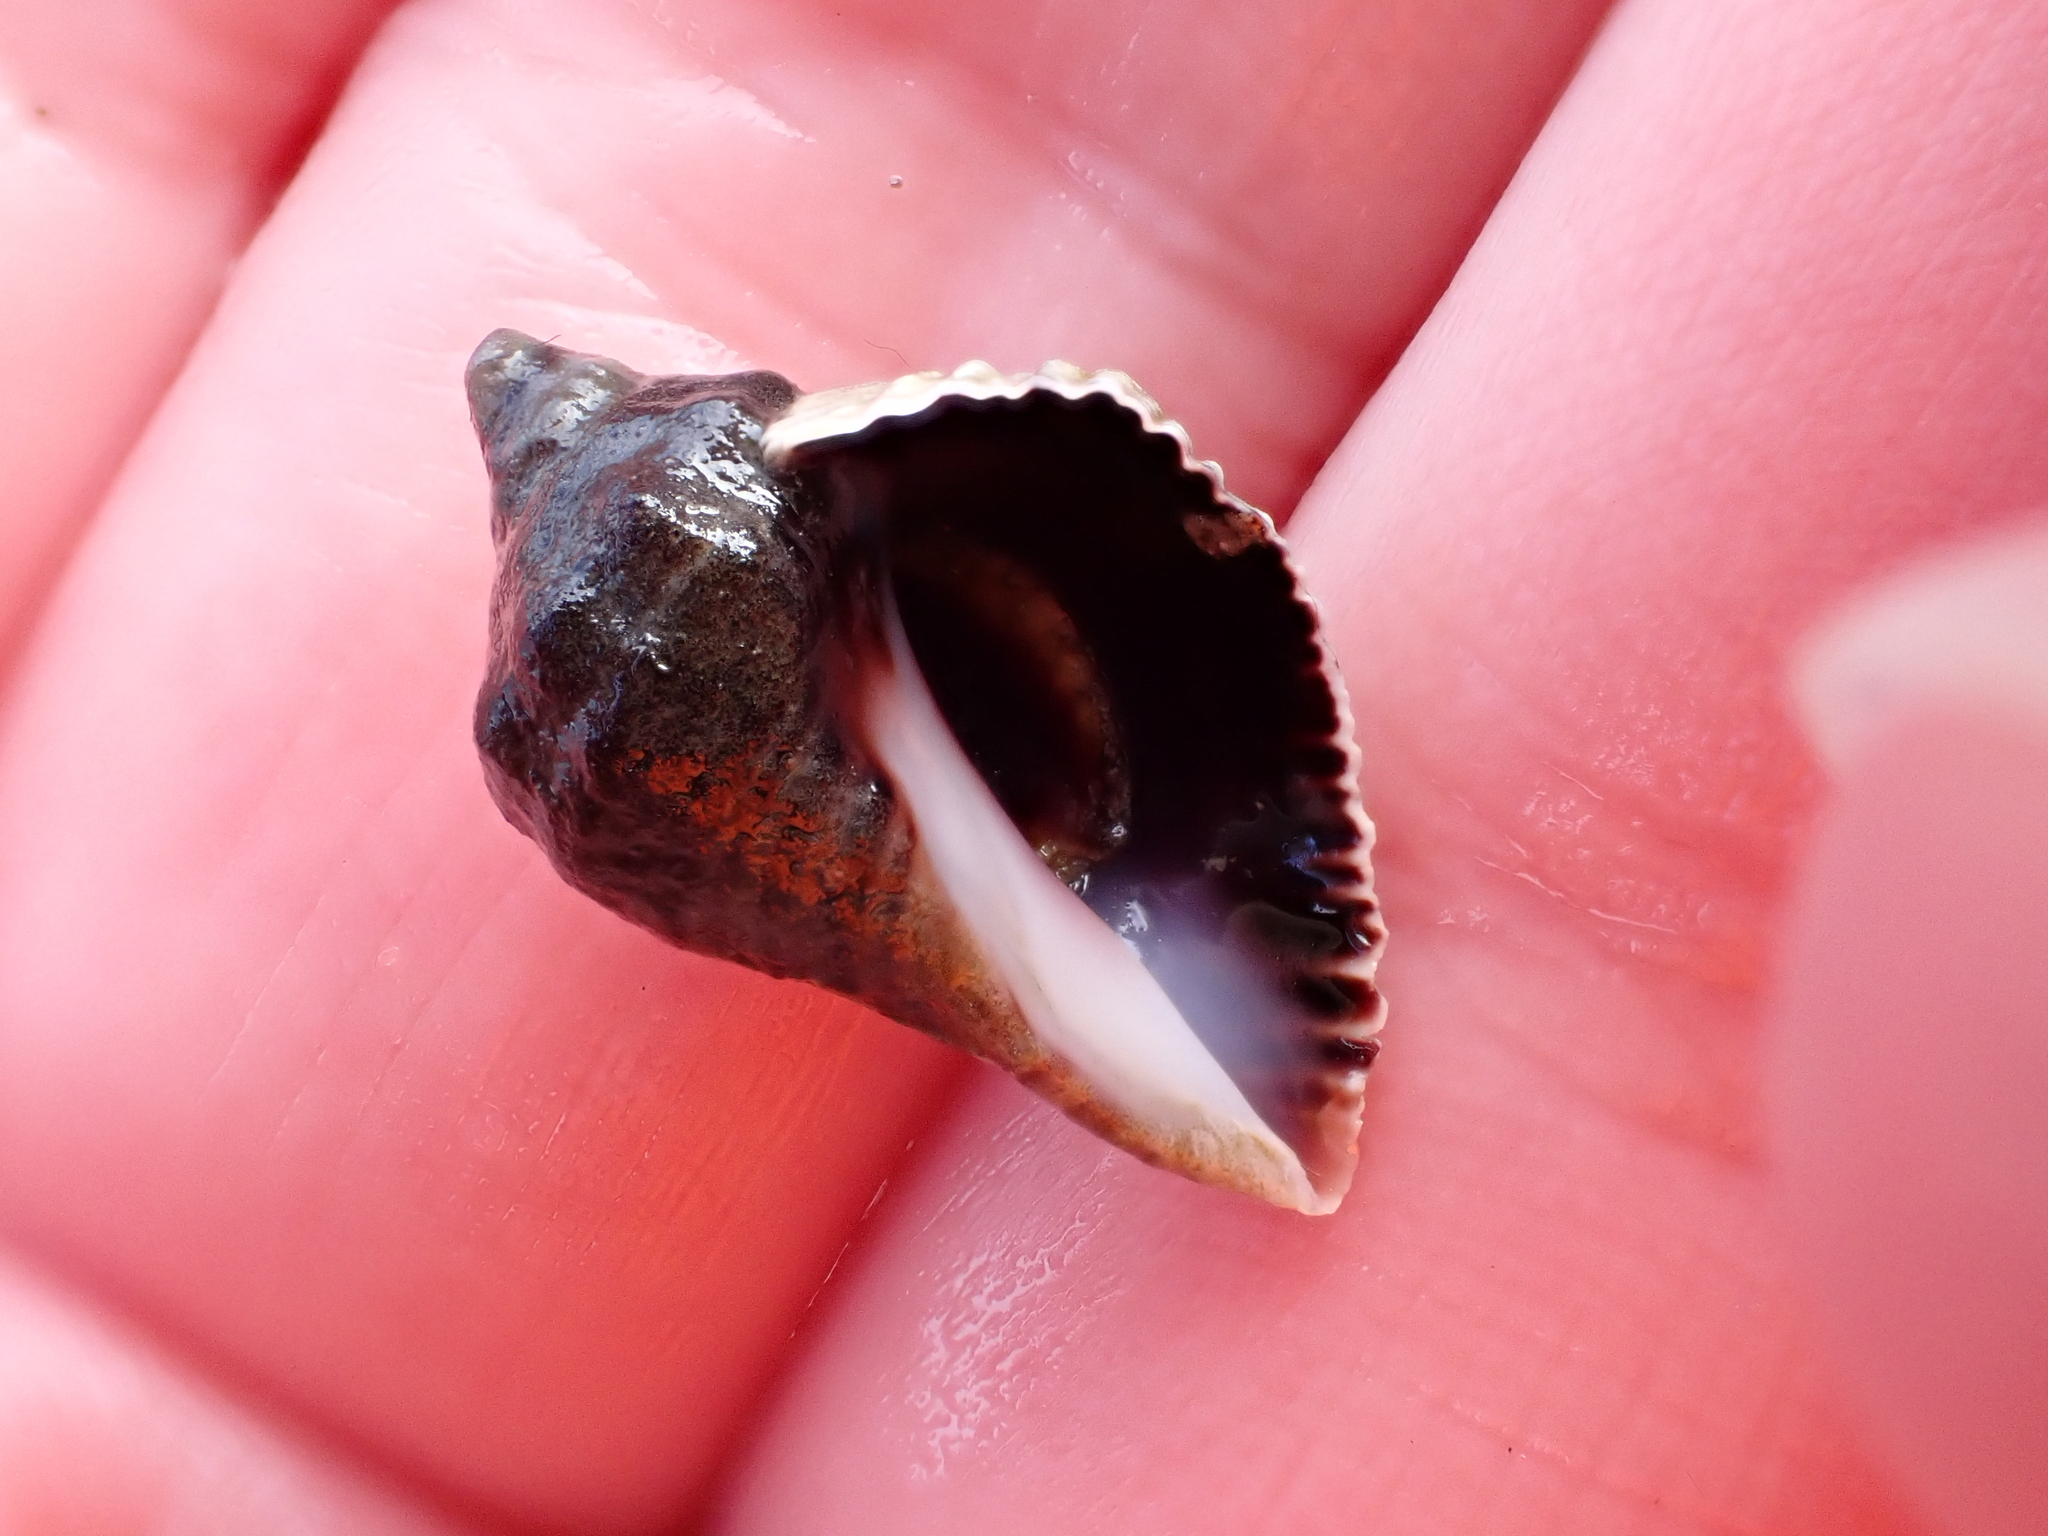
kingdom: Animalia
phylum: Mollusca
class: Gastropoda
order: Neogastropoda
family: Muricidae
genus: Haustrum
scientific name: Haustrum haustorium
